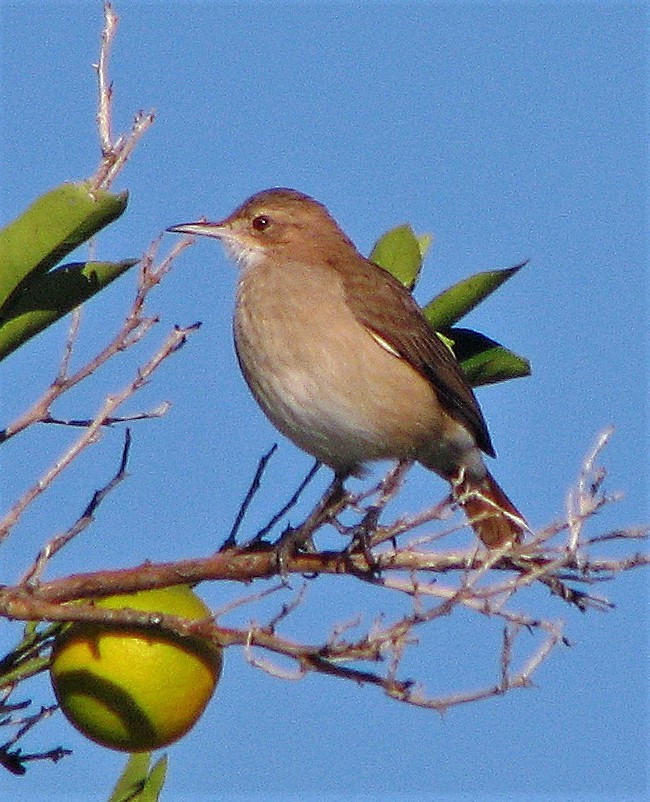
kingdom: Animalia
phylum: Chordata
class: Aves
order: Passeriformes
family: Furnariidae
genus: Furnarius
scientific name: Furnarius rufus
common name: Rufous hornero
